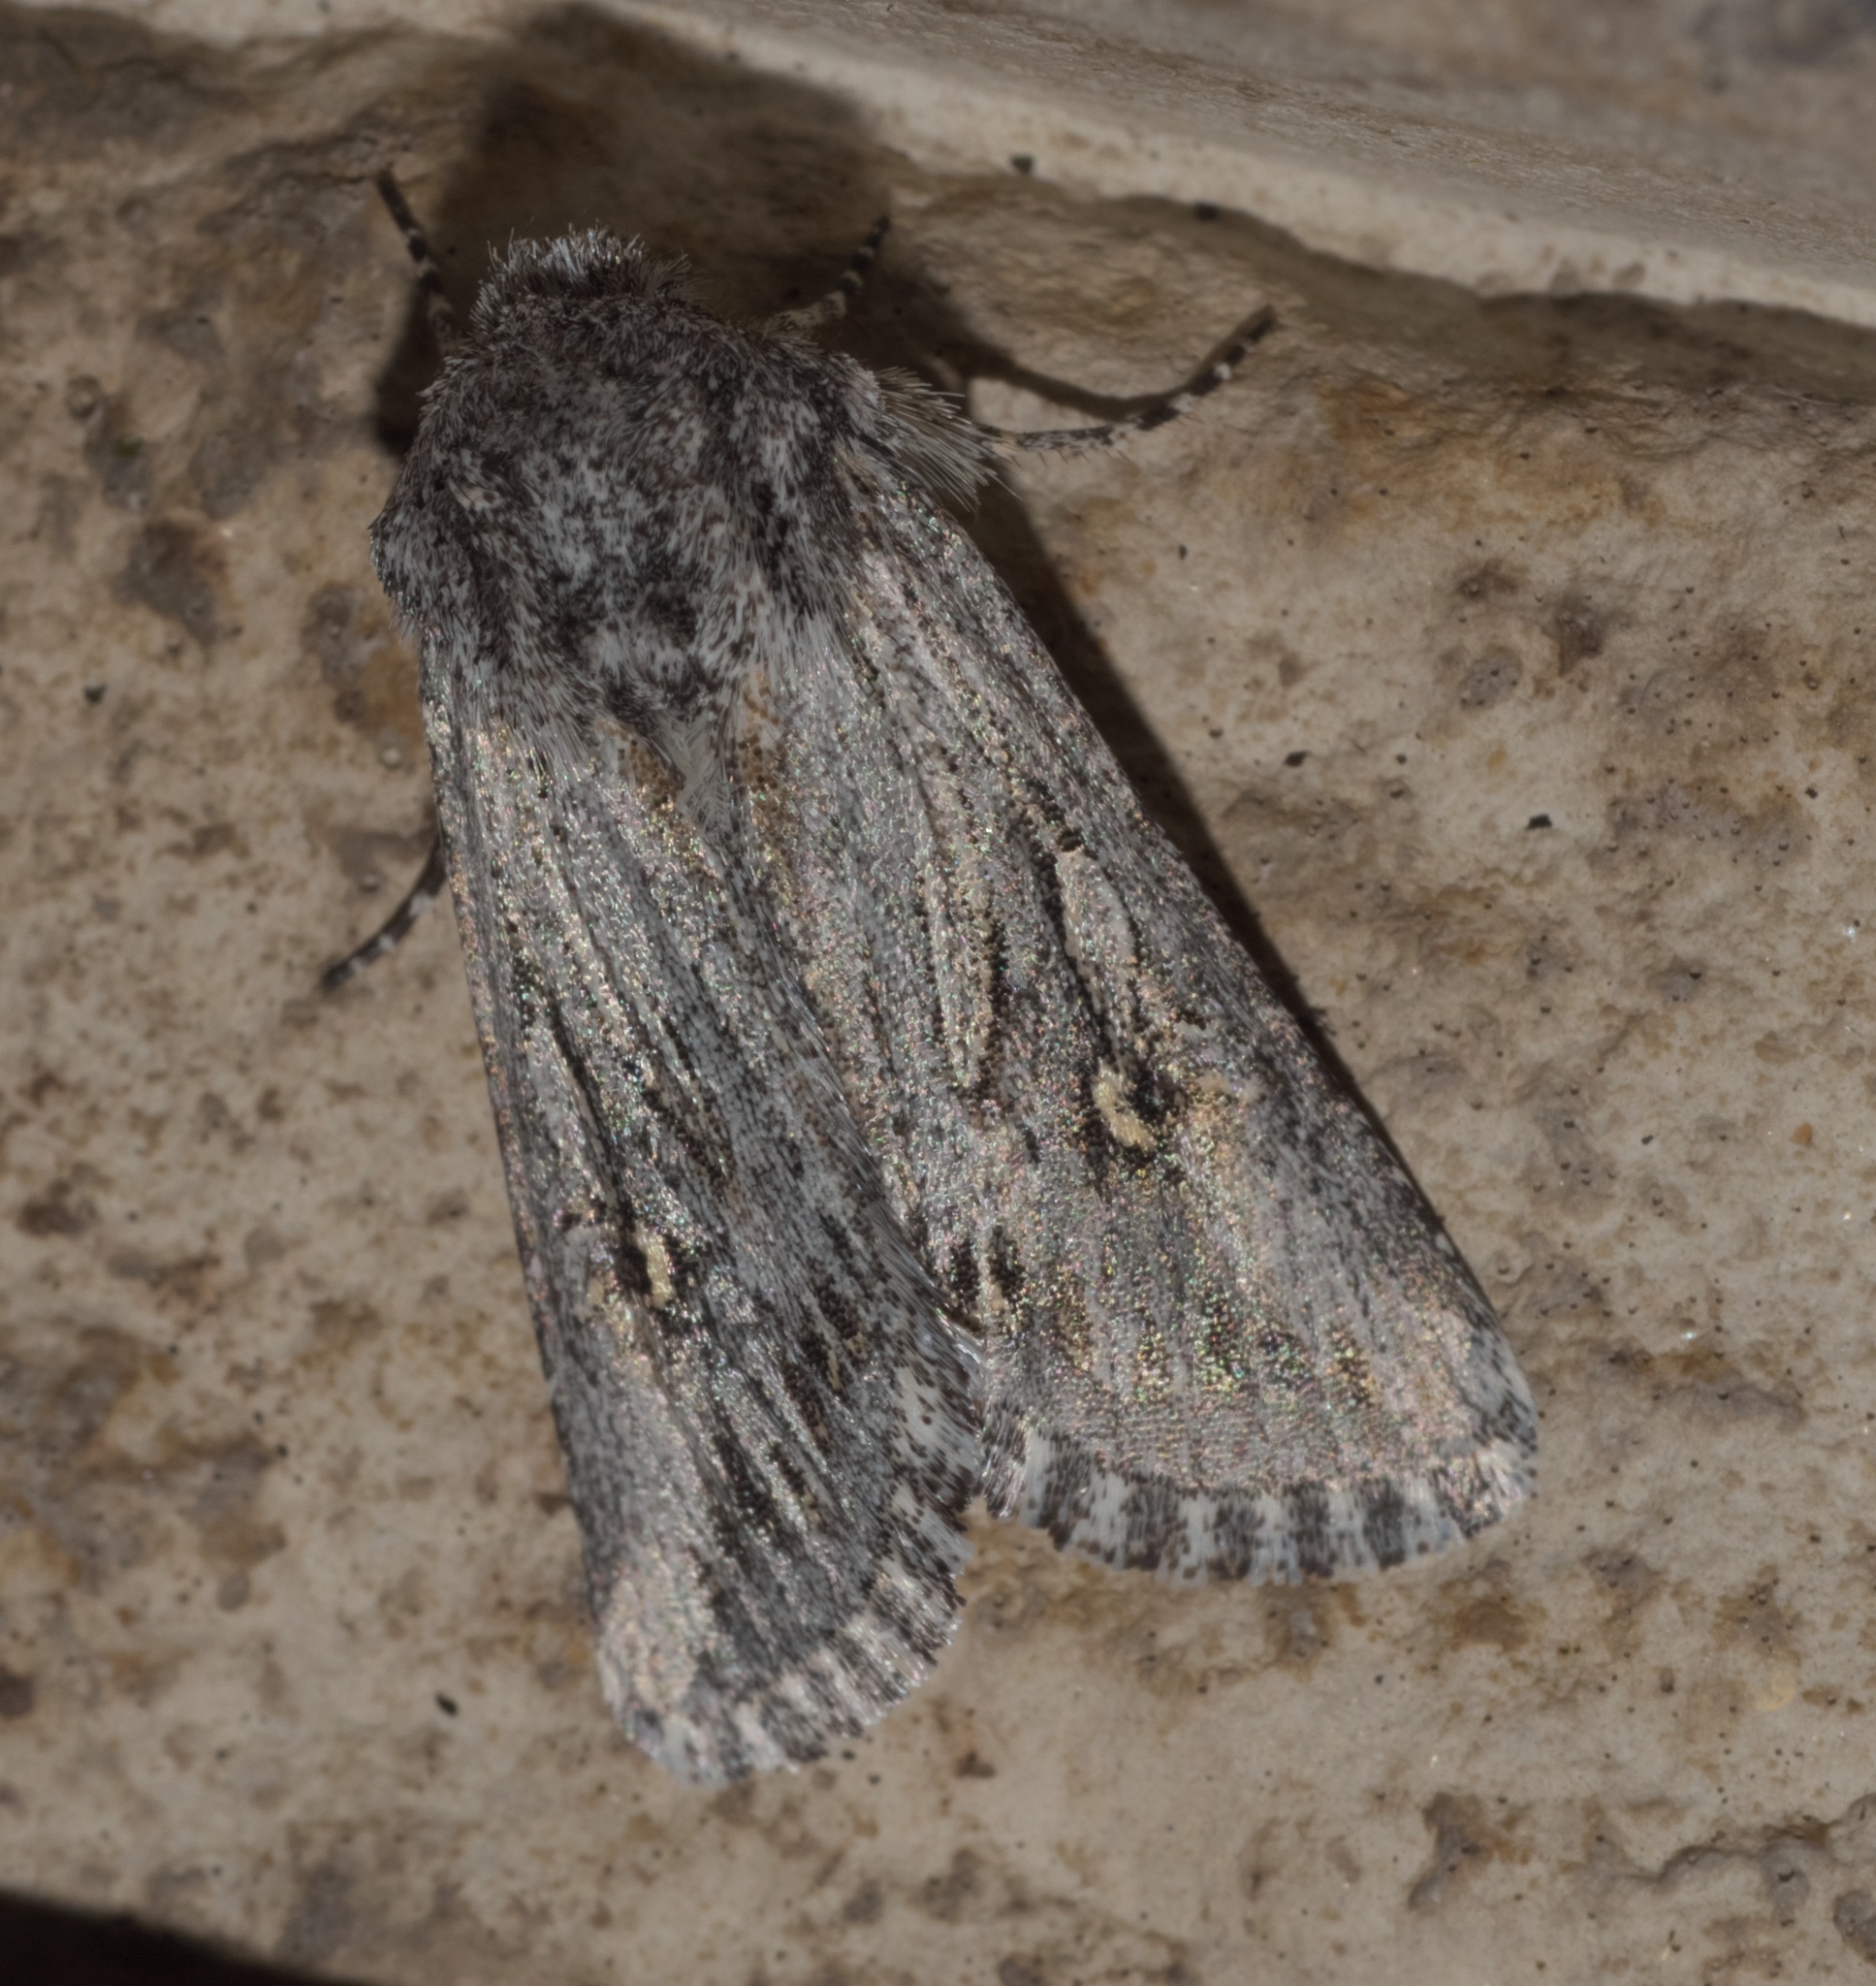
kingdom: Animalia
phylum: Arthropoda
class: Insecta
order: Lepidoptera
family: Noctuidae
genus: Trichocerapoda
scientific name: Trichocerapoda strigata
